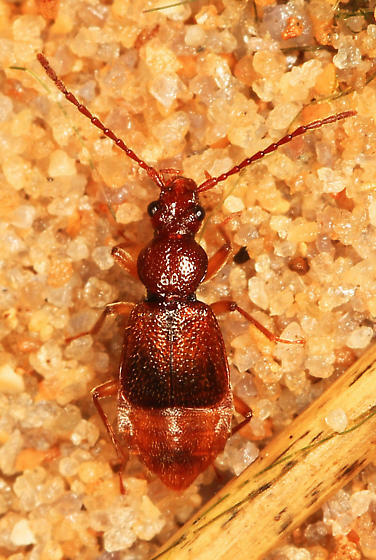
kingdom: Animalia
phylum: Arthropoda
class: Insecta
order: Coleoptera
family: Staphylinidae
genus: Geodromicus
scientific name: Geodromicus brunneus
